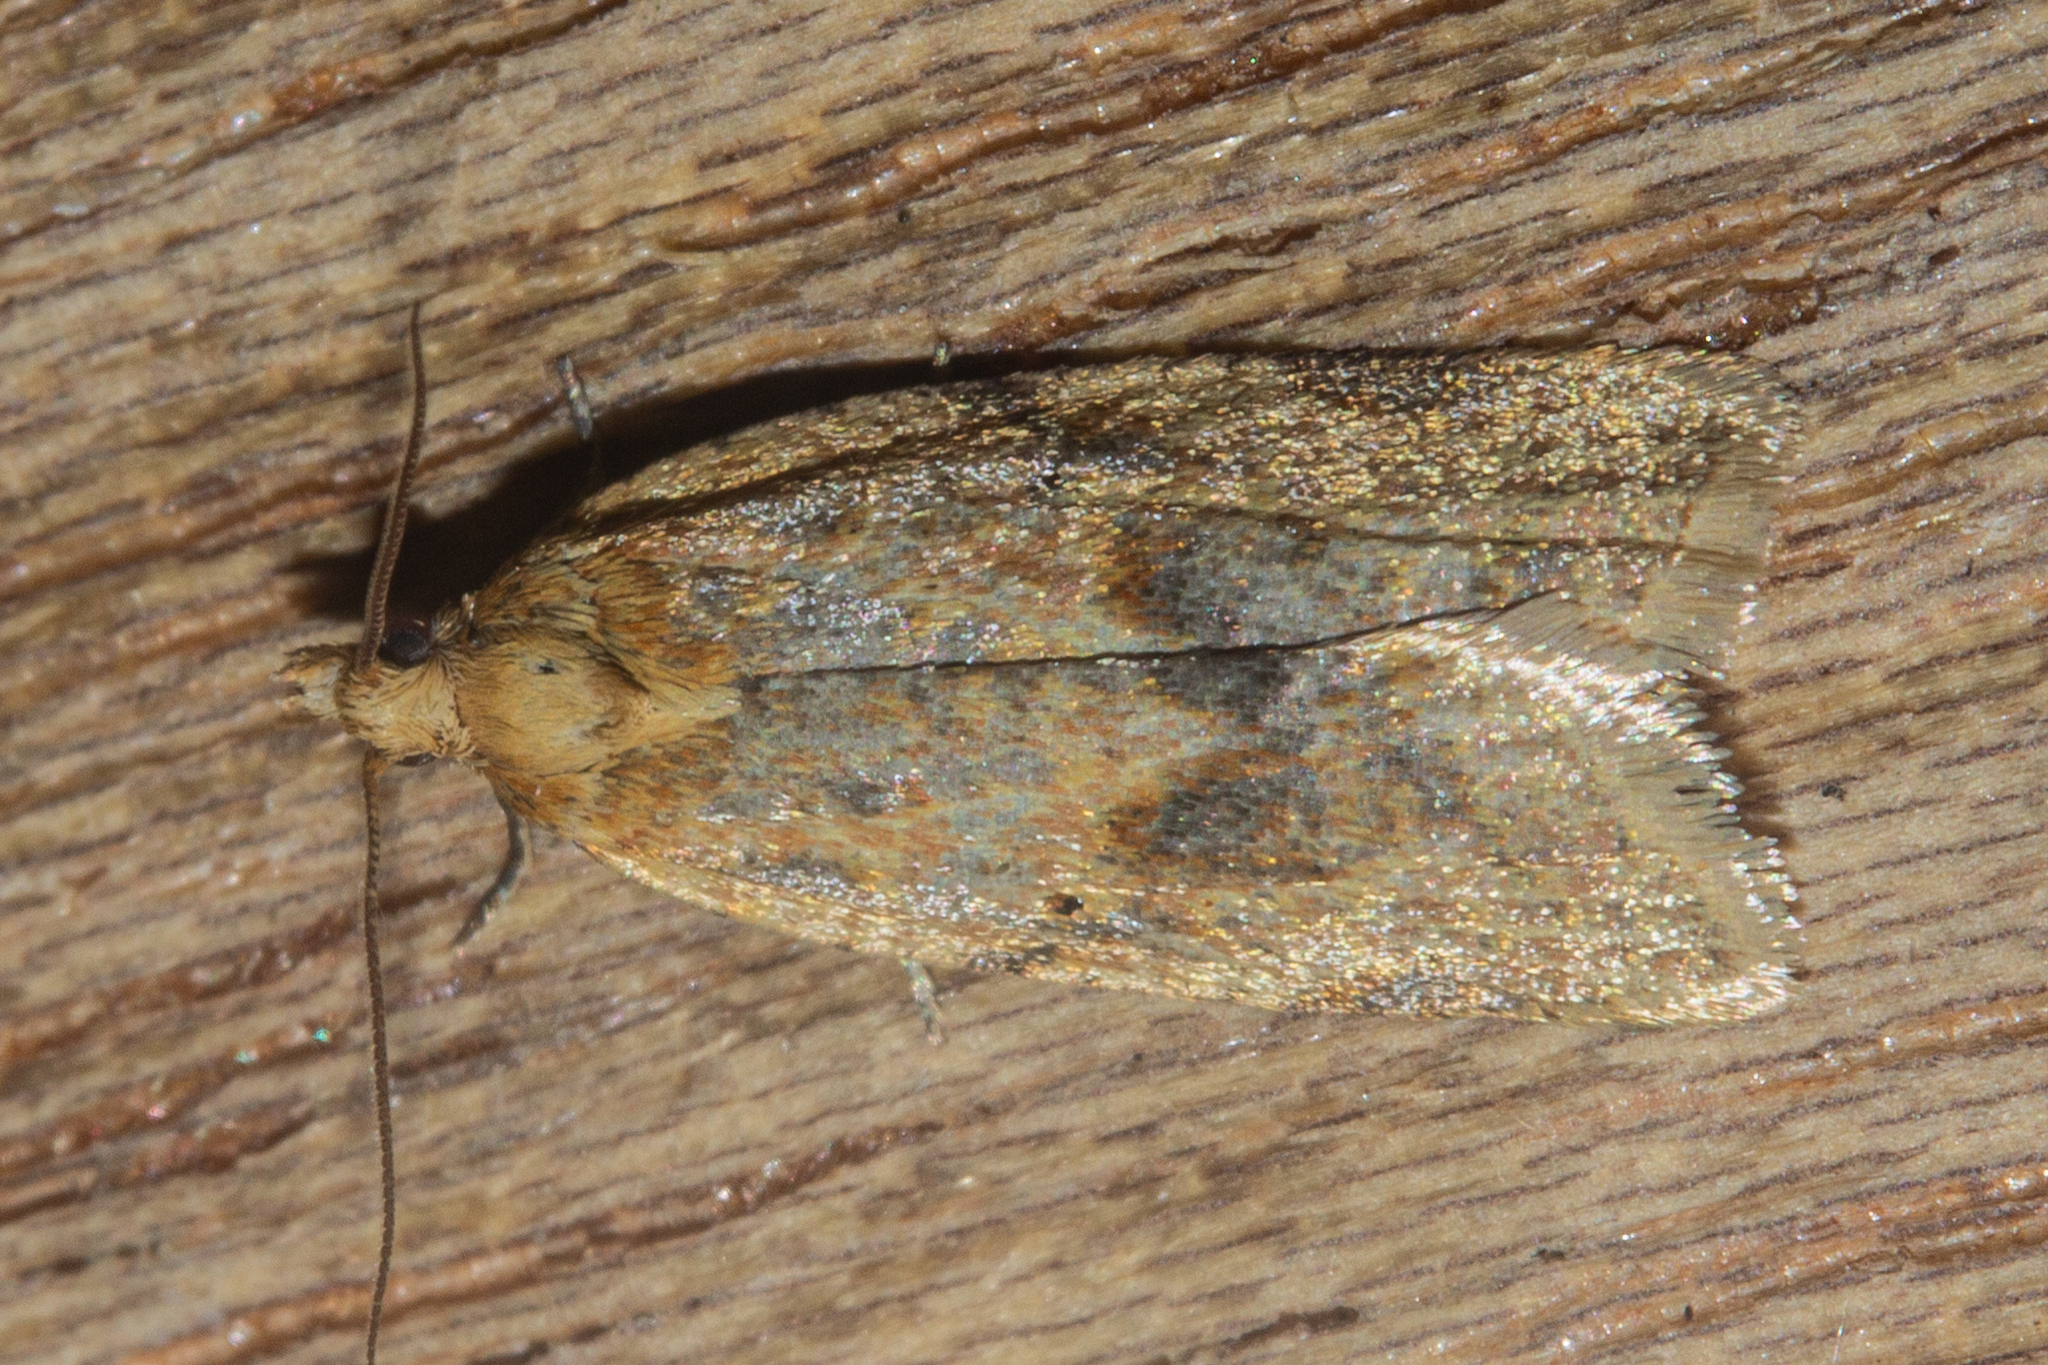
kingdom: Animalia
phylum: Arthropoda
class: Insecta
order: Lepidoptera
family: Tortricidae
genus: Clepsis
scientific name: Clepsis
